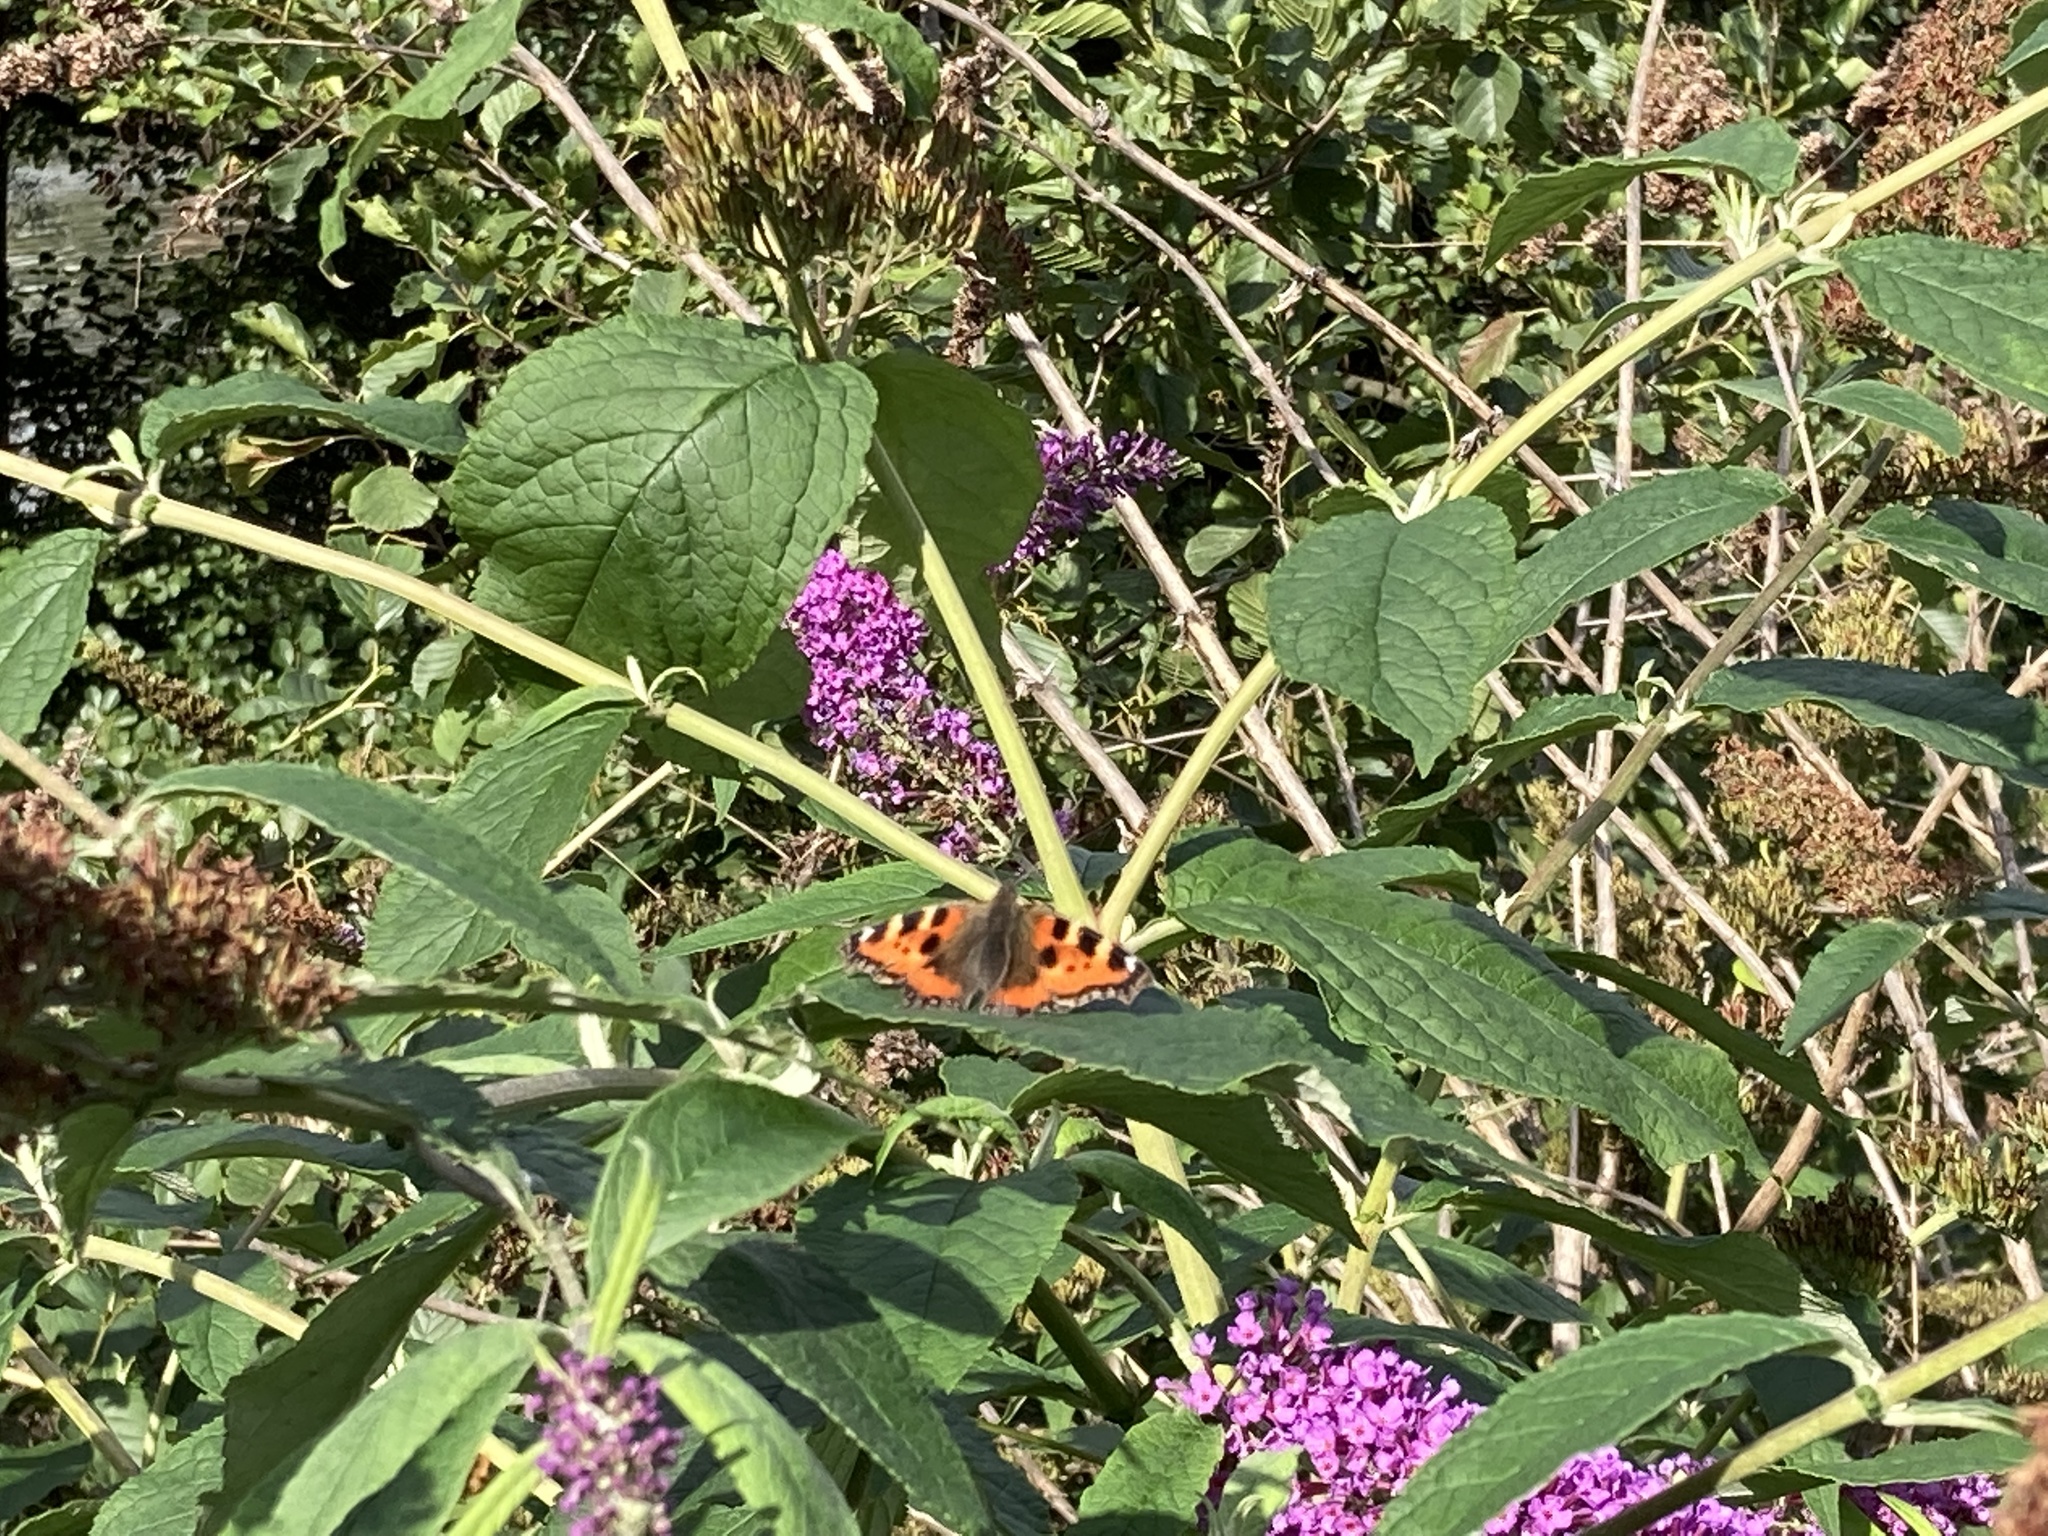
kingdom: Animalia
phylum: Arthropoda
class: Insecta
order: Lepidoptera
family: Nymphalidae
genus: Aglais
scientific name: Aglais urticae
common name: Small tortoiseshell
